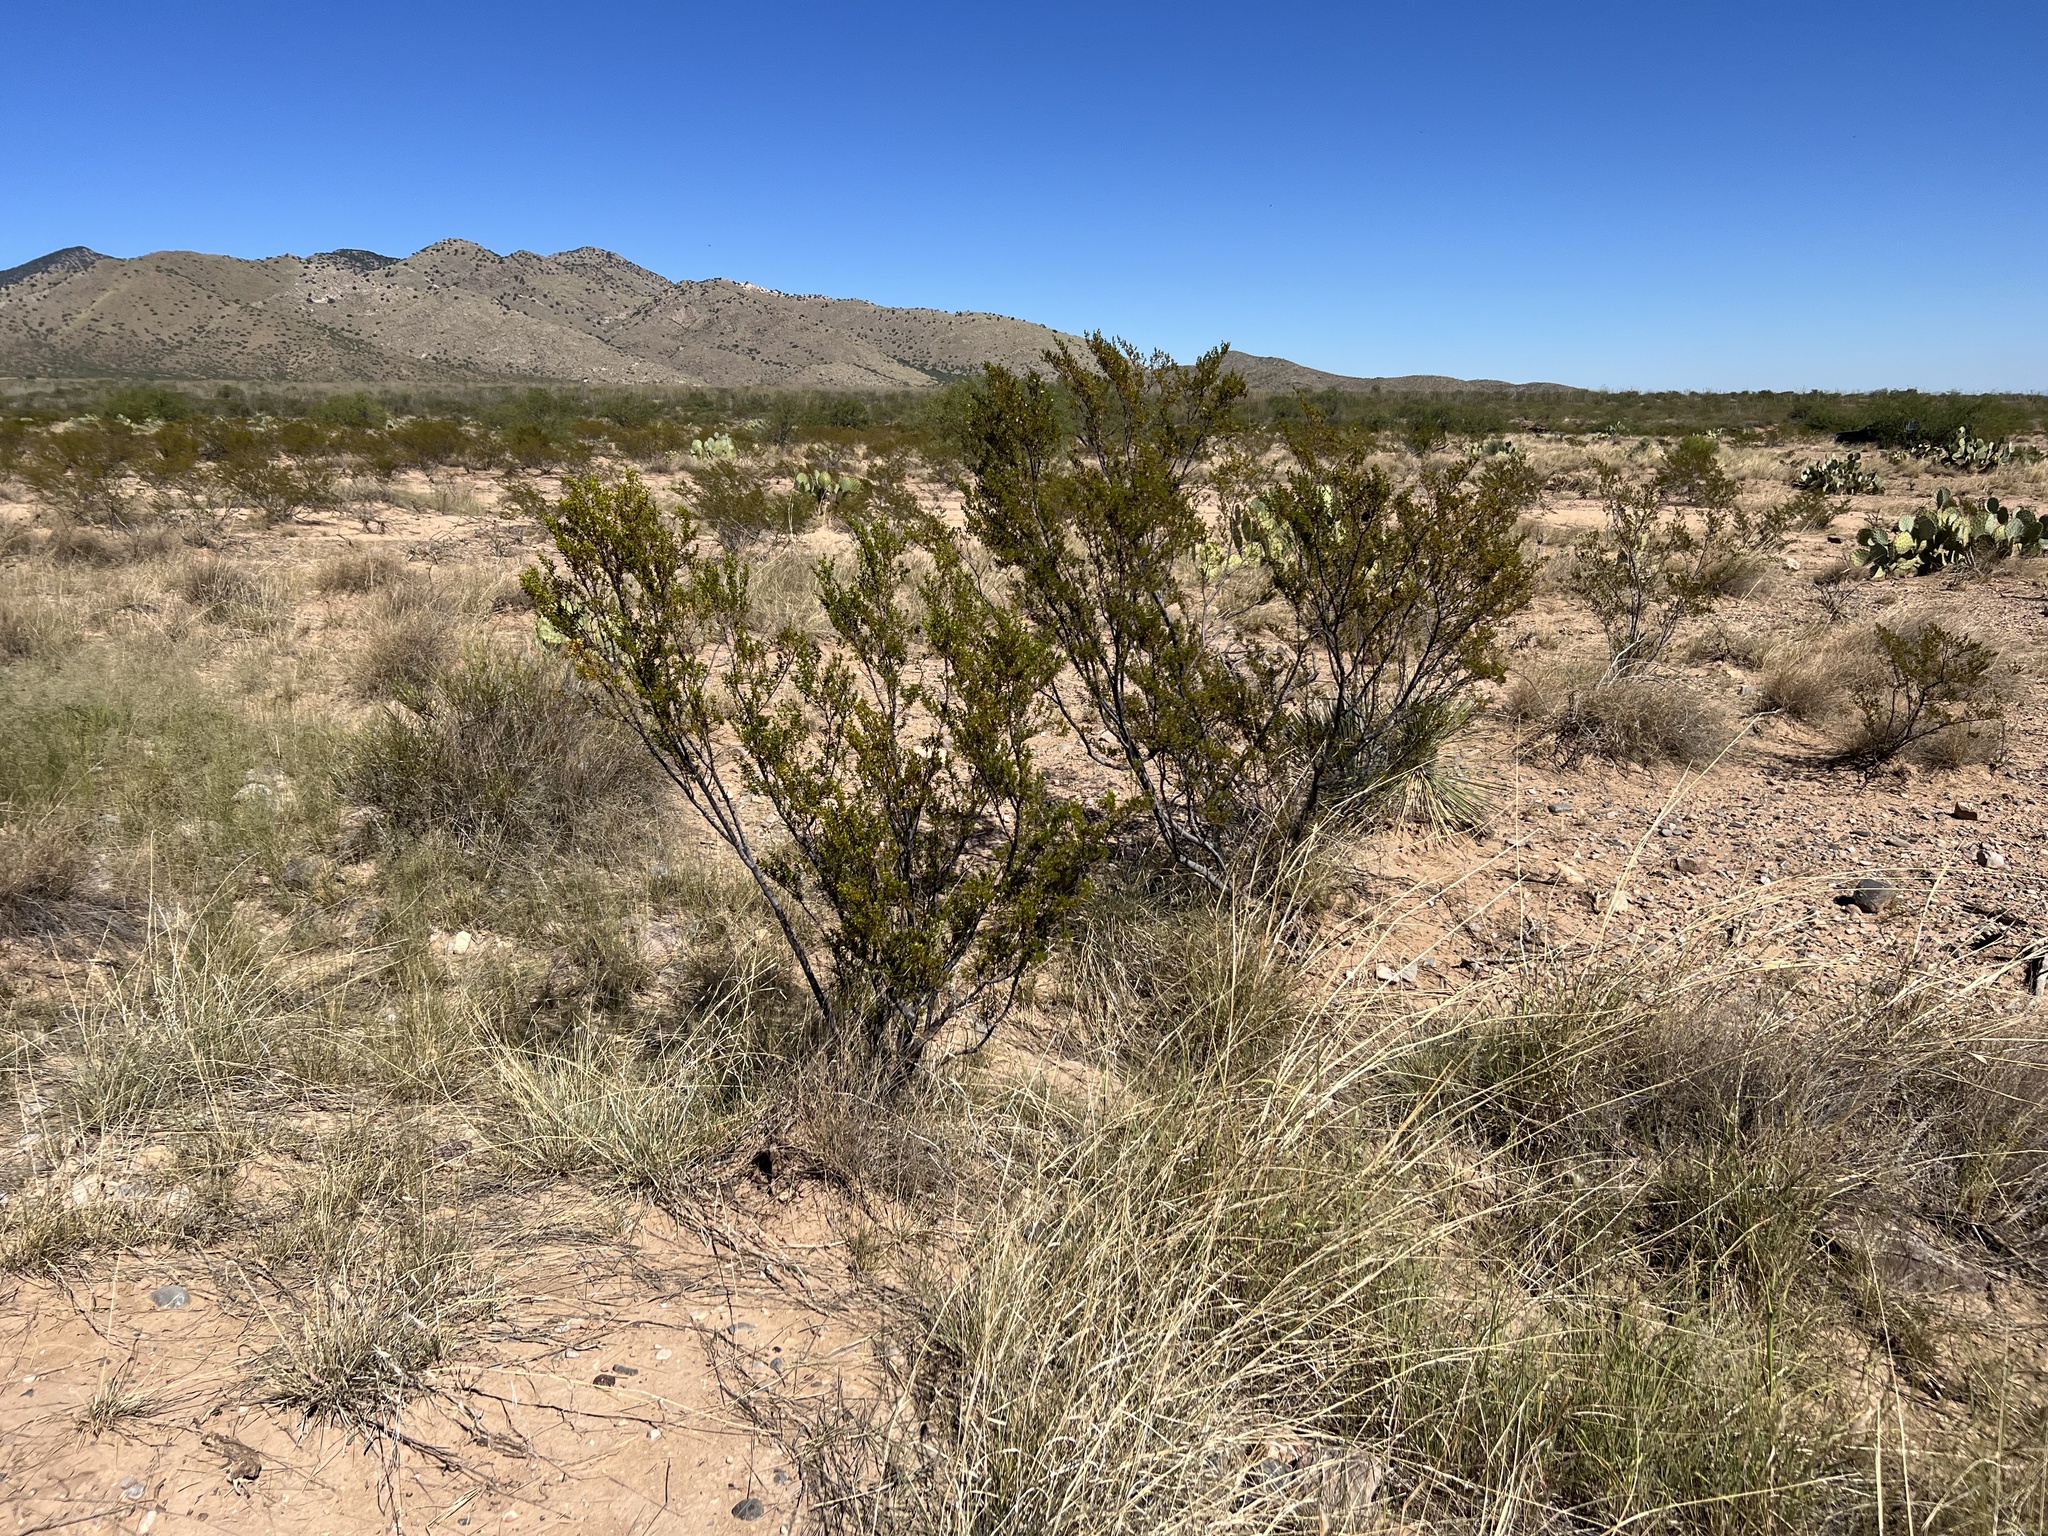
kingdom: Plantae
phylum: Tracheophyta
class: Magnoliopsida
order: Zygophyllales
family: Zygophyllaceae
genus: Larrea
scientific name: Larrea tridentata
